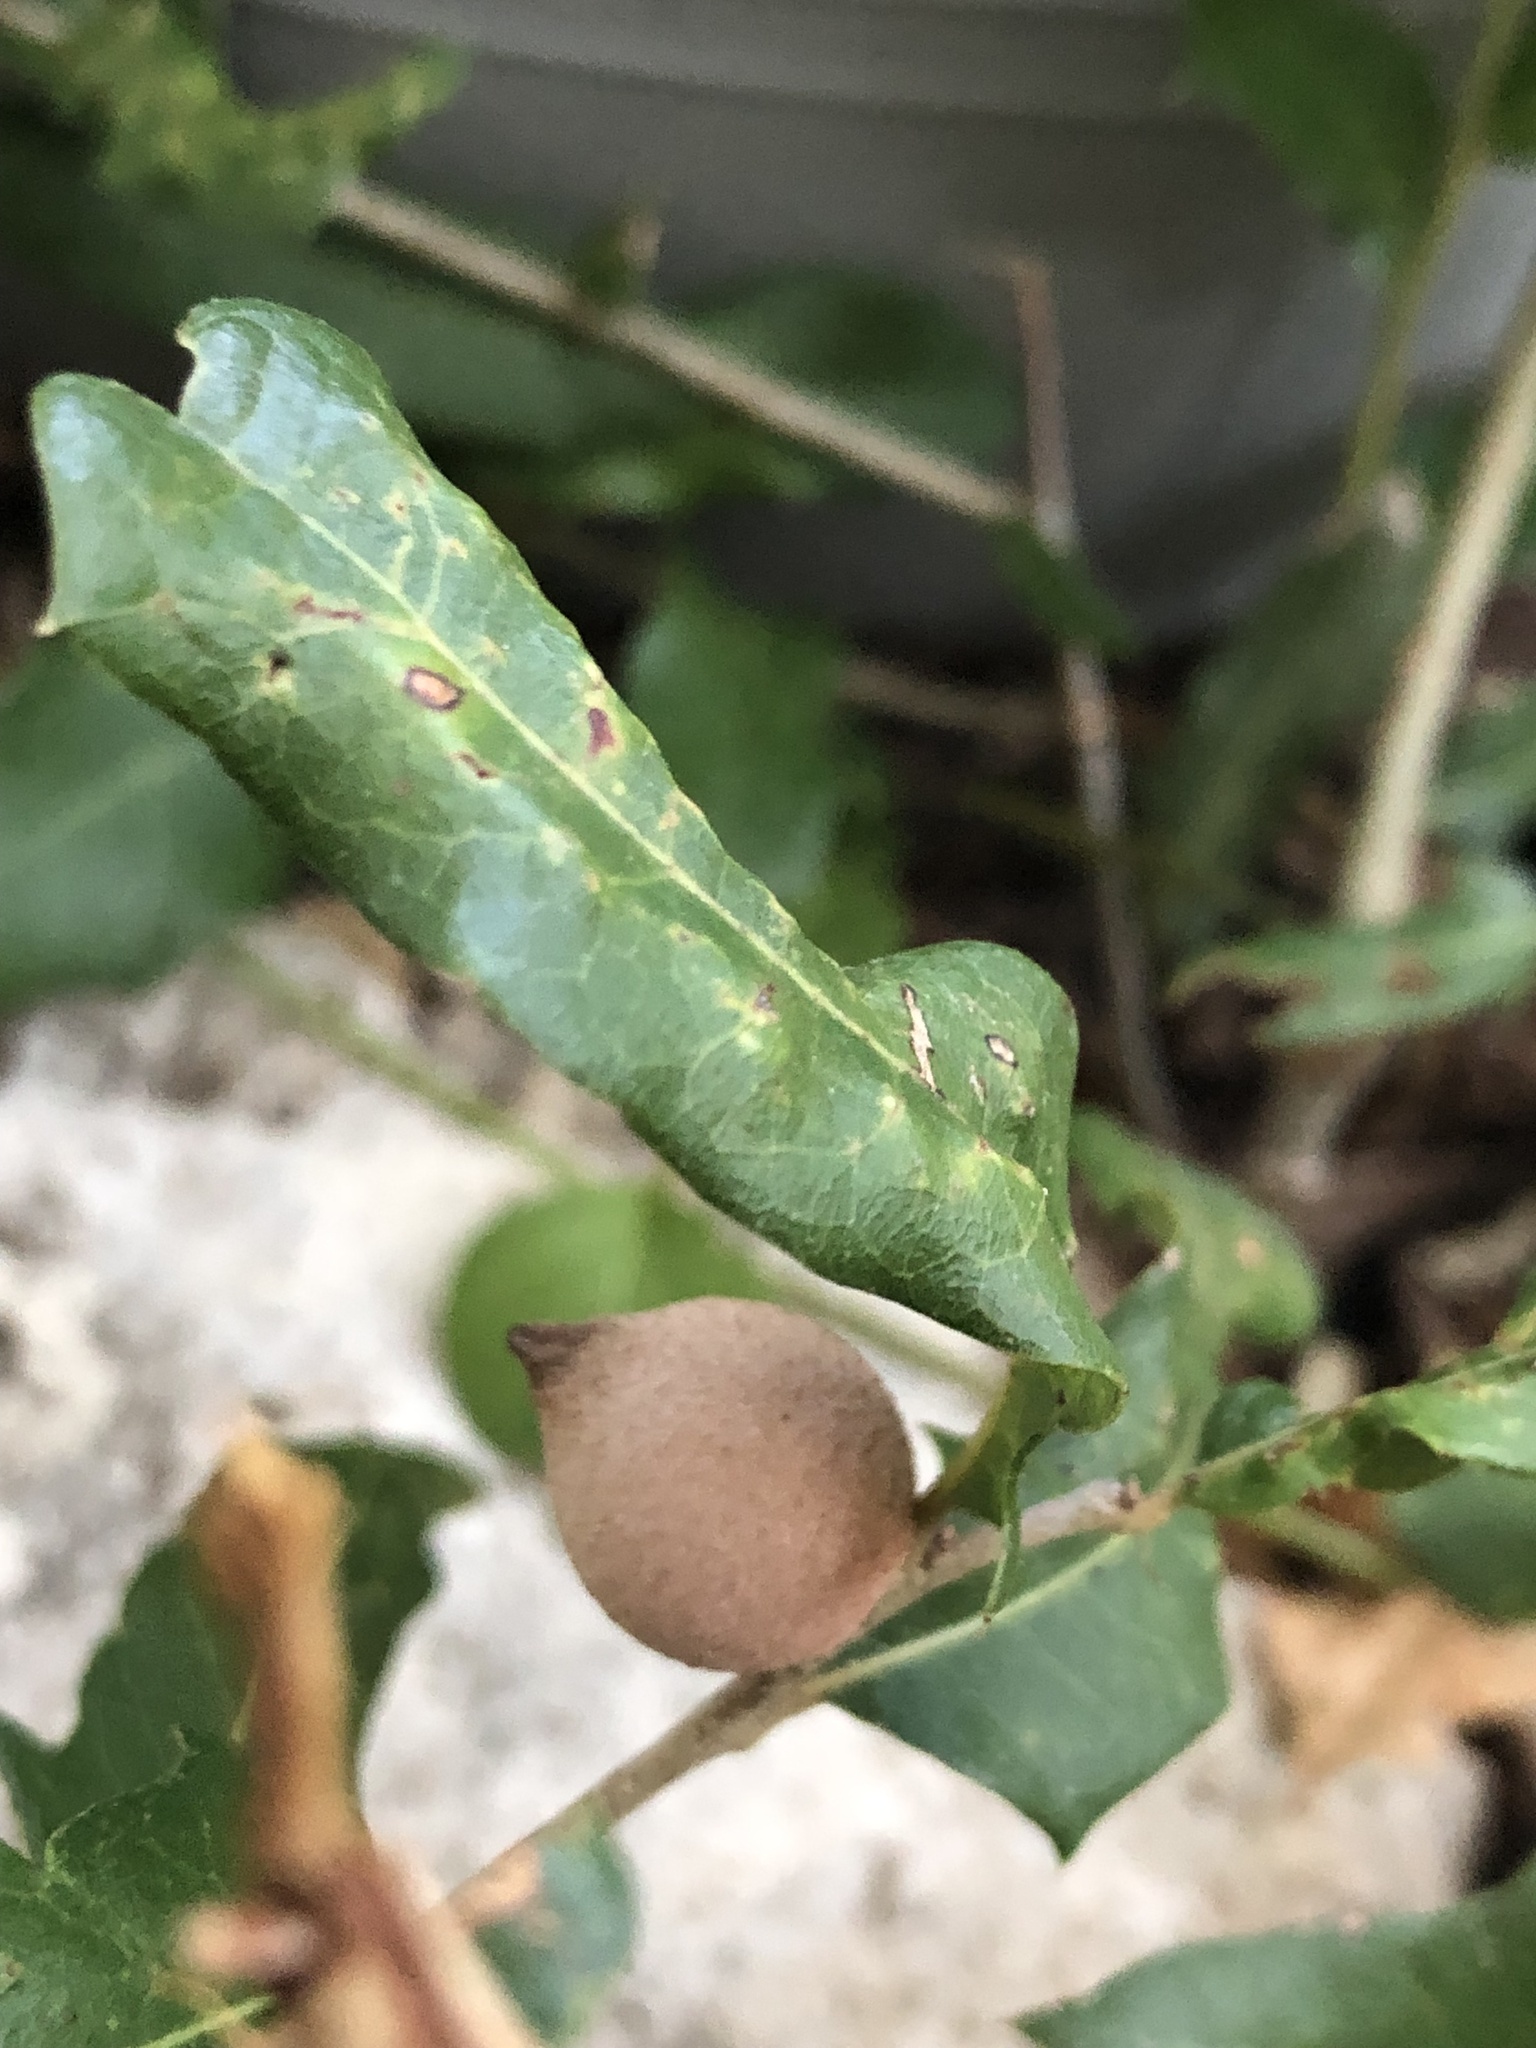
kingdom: Animalia
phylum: Arthropoda
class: Insecta
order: Hymenoptera
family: Cynipidae
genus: Disholcaspis
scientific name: Disholcaspis
